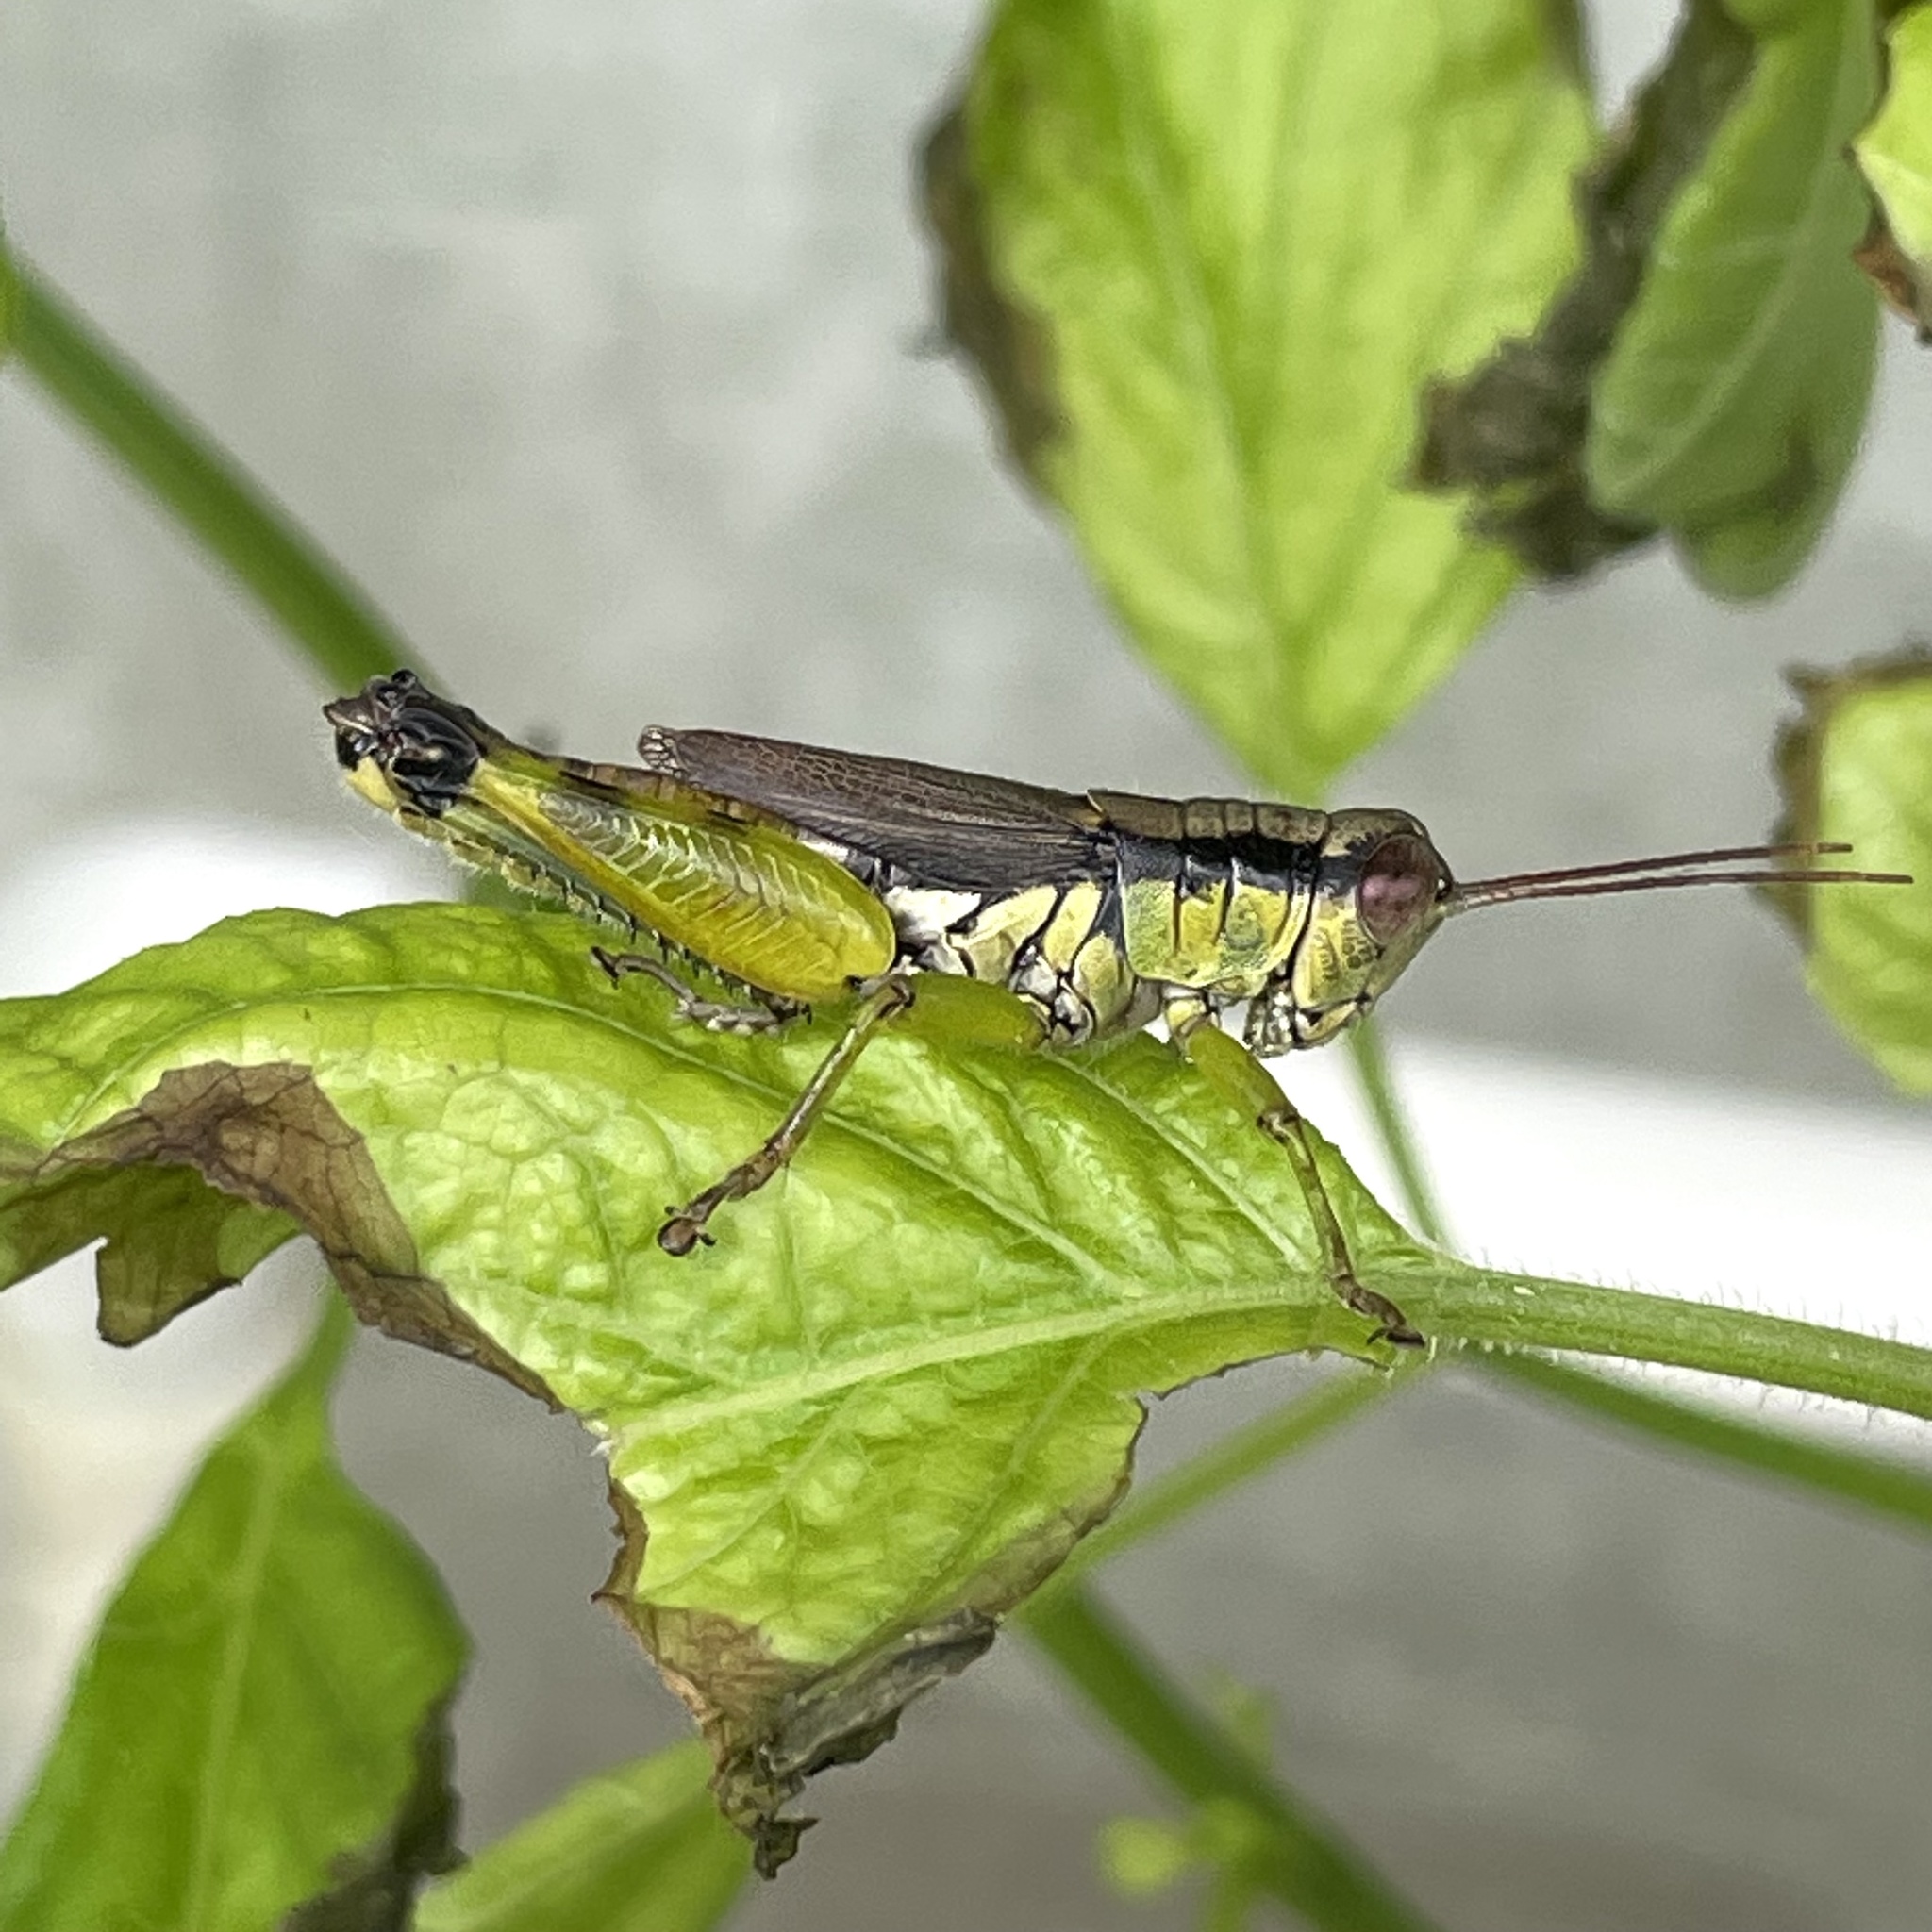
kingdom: Animalia
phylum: Arthropoda
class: Insecta
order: Orthoptera
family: Acrididae
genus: Fruhstorferiola
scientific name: Fruhstorferiola okinawaensis
